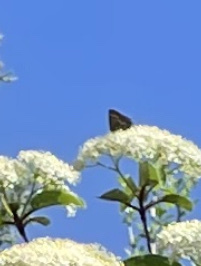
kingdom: Animalia
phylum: Arthropoda
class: Insecta
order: Lepidoptera
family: Lycaenidae
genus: Mitoura
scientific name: Mitoura gryneus
